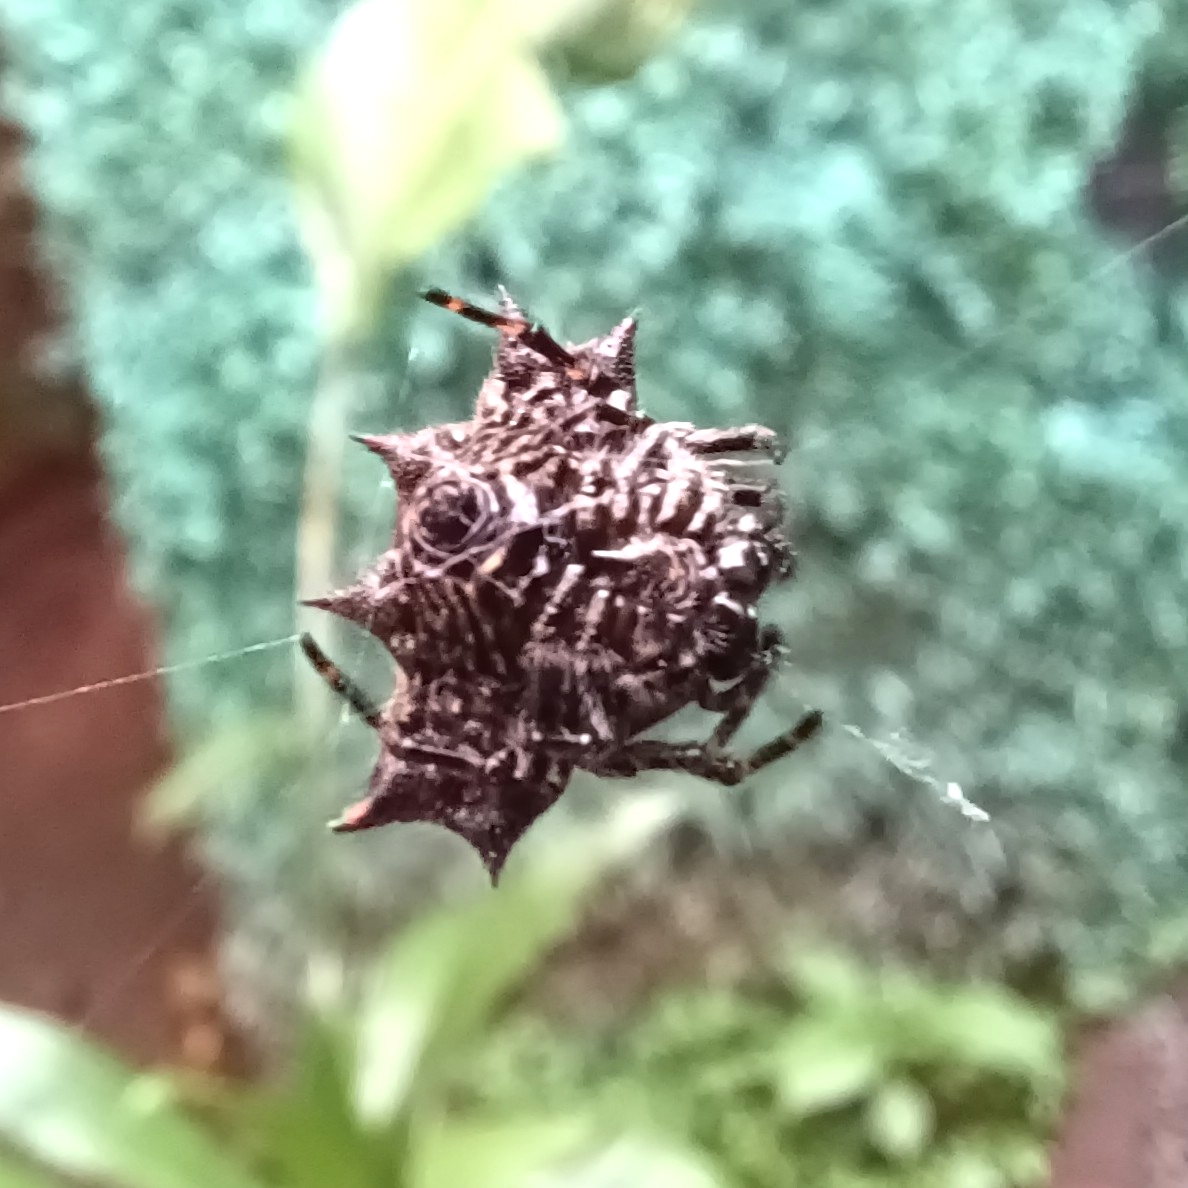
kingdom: Animalia
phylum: Arthropoda
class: Arachnida
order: Araneae
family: Araneidae
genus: Gasteracantha
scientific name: Gasteracantha cancriformis
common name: Orb weavers
